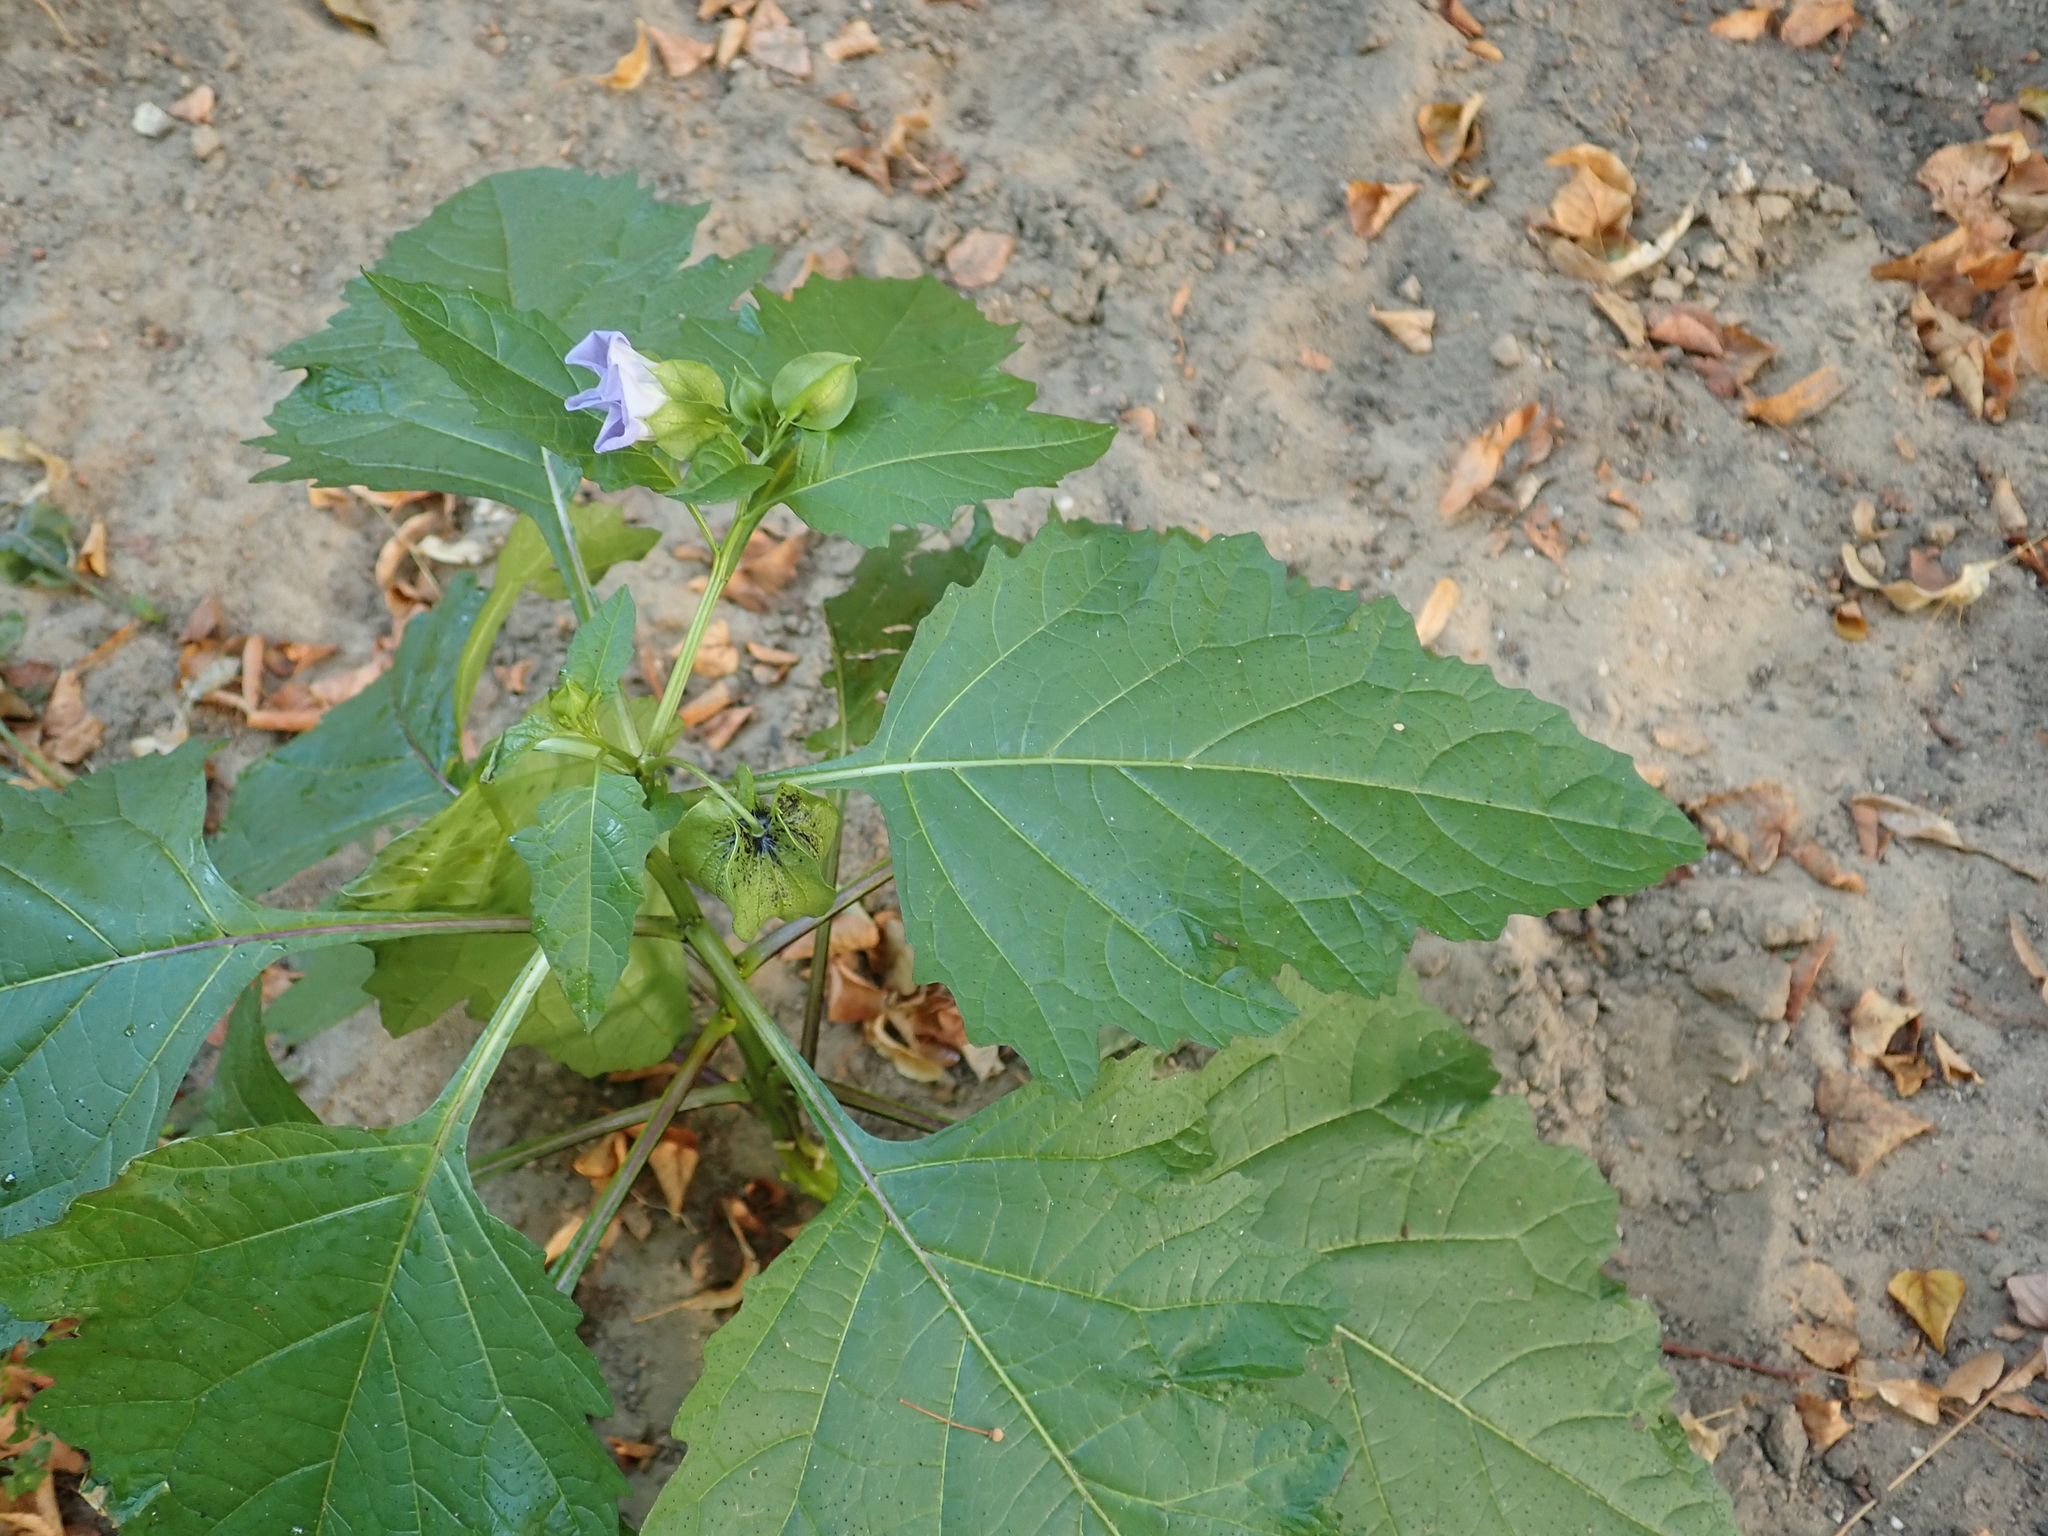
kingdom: Plantae
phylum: Tracheophyta
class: Magnoliopsida
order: Solanales
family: Solanaceae
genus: Nicandra
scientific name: Nicandra physalodes
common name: Apple-of-peru
